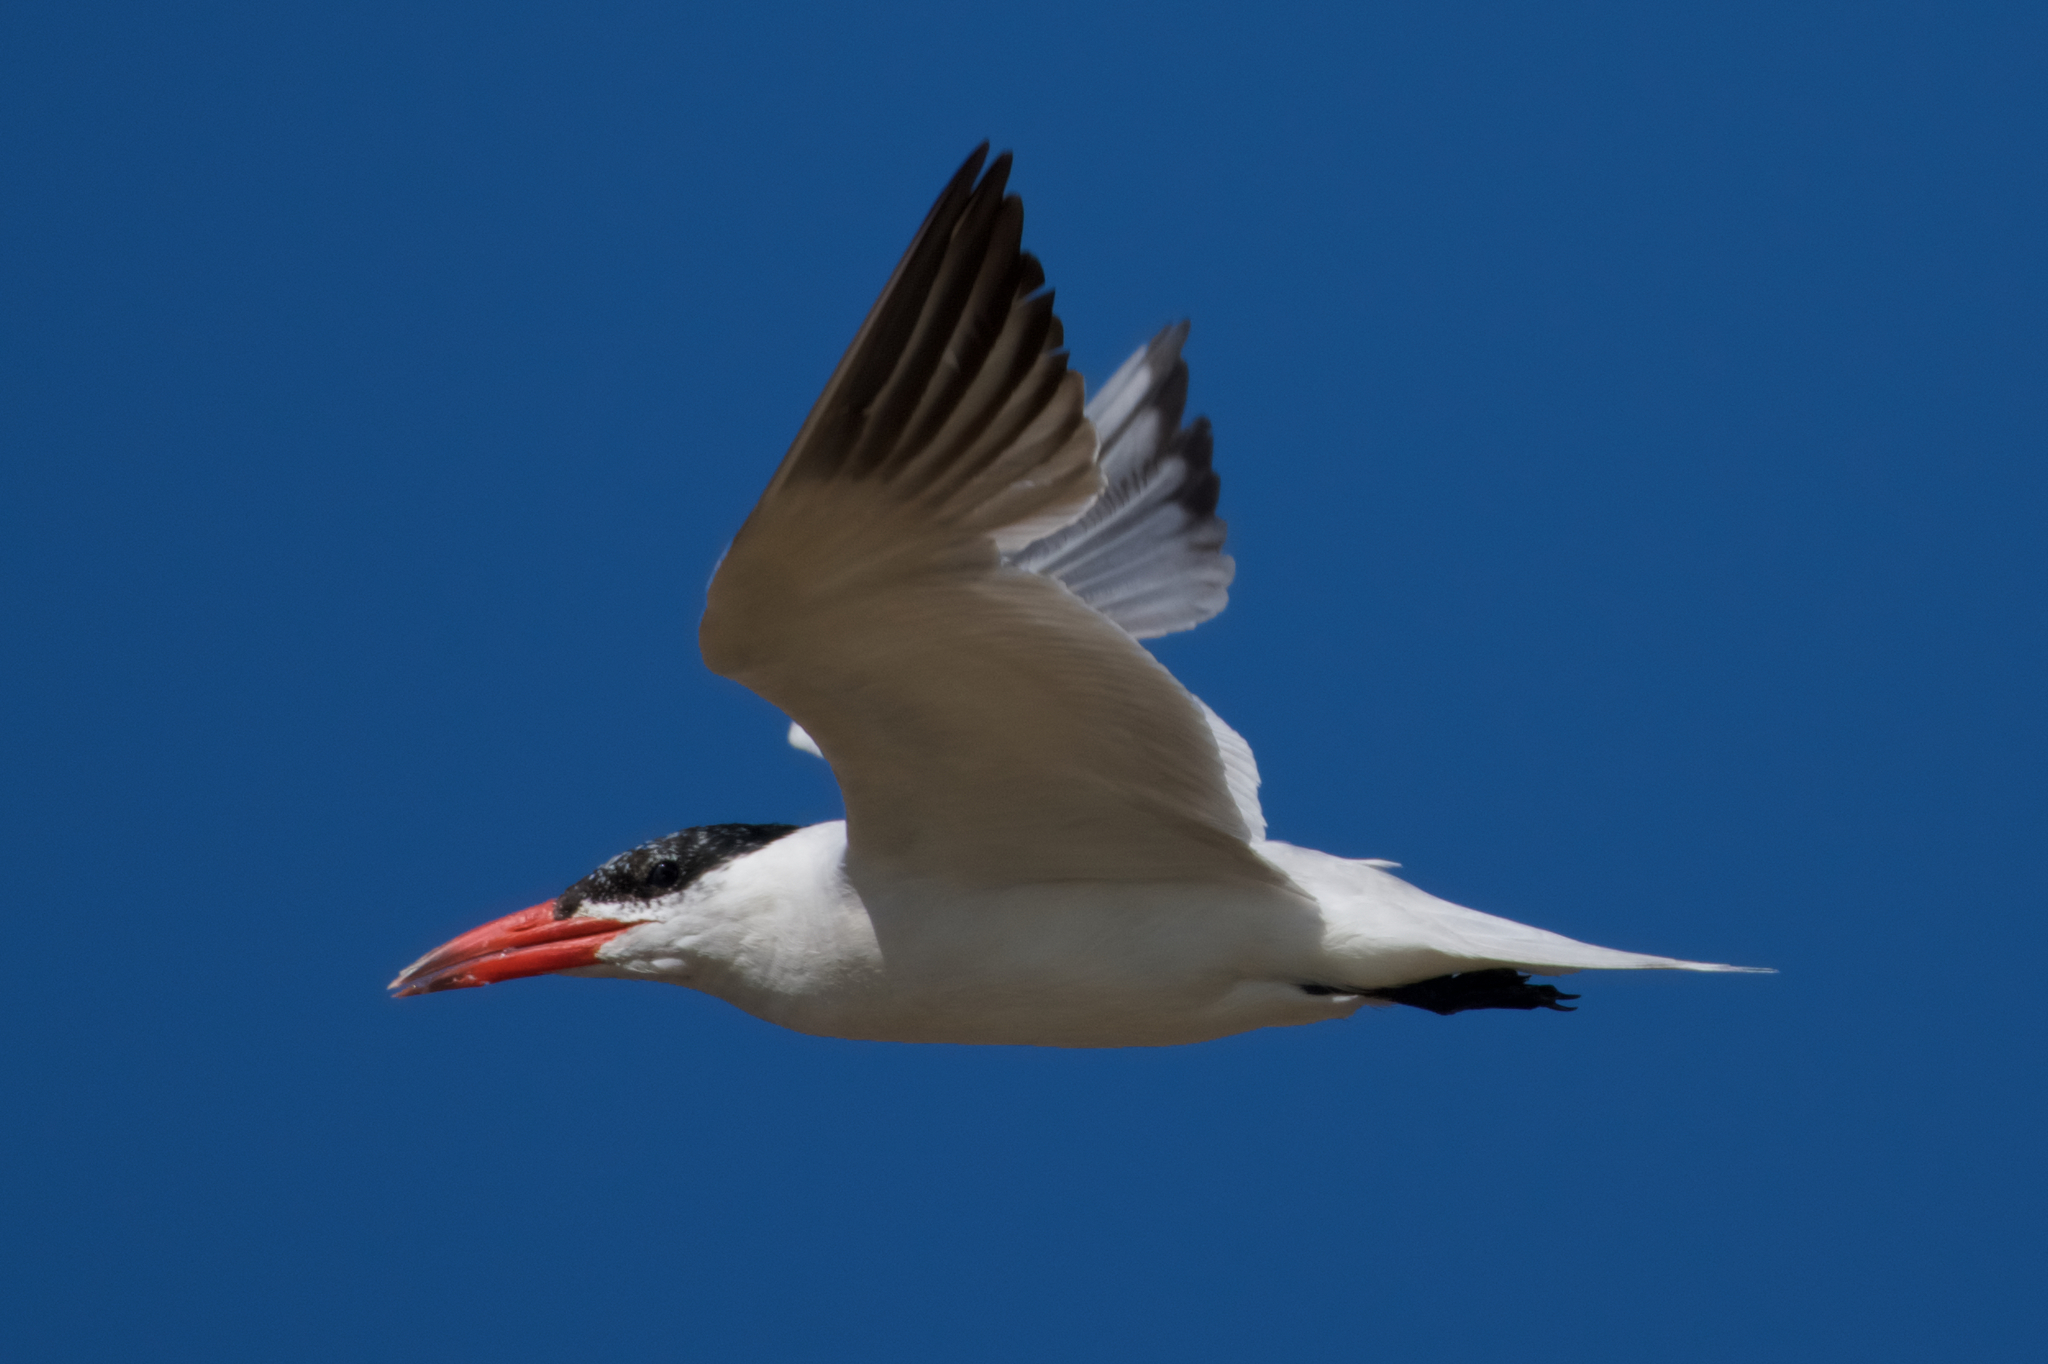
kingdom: Animalia
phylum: Chordata
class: Aves
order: Charadriiformes
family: Laridae
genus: Hydroprogne
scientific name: Hydroprogne caspia
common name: Caspian tern
